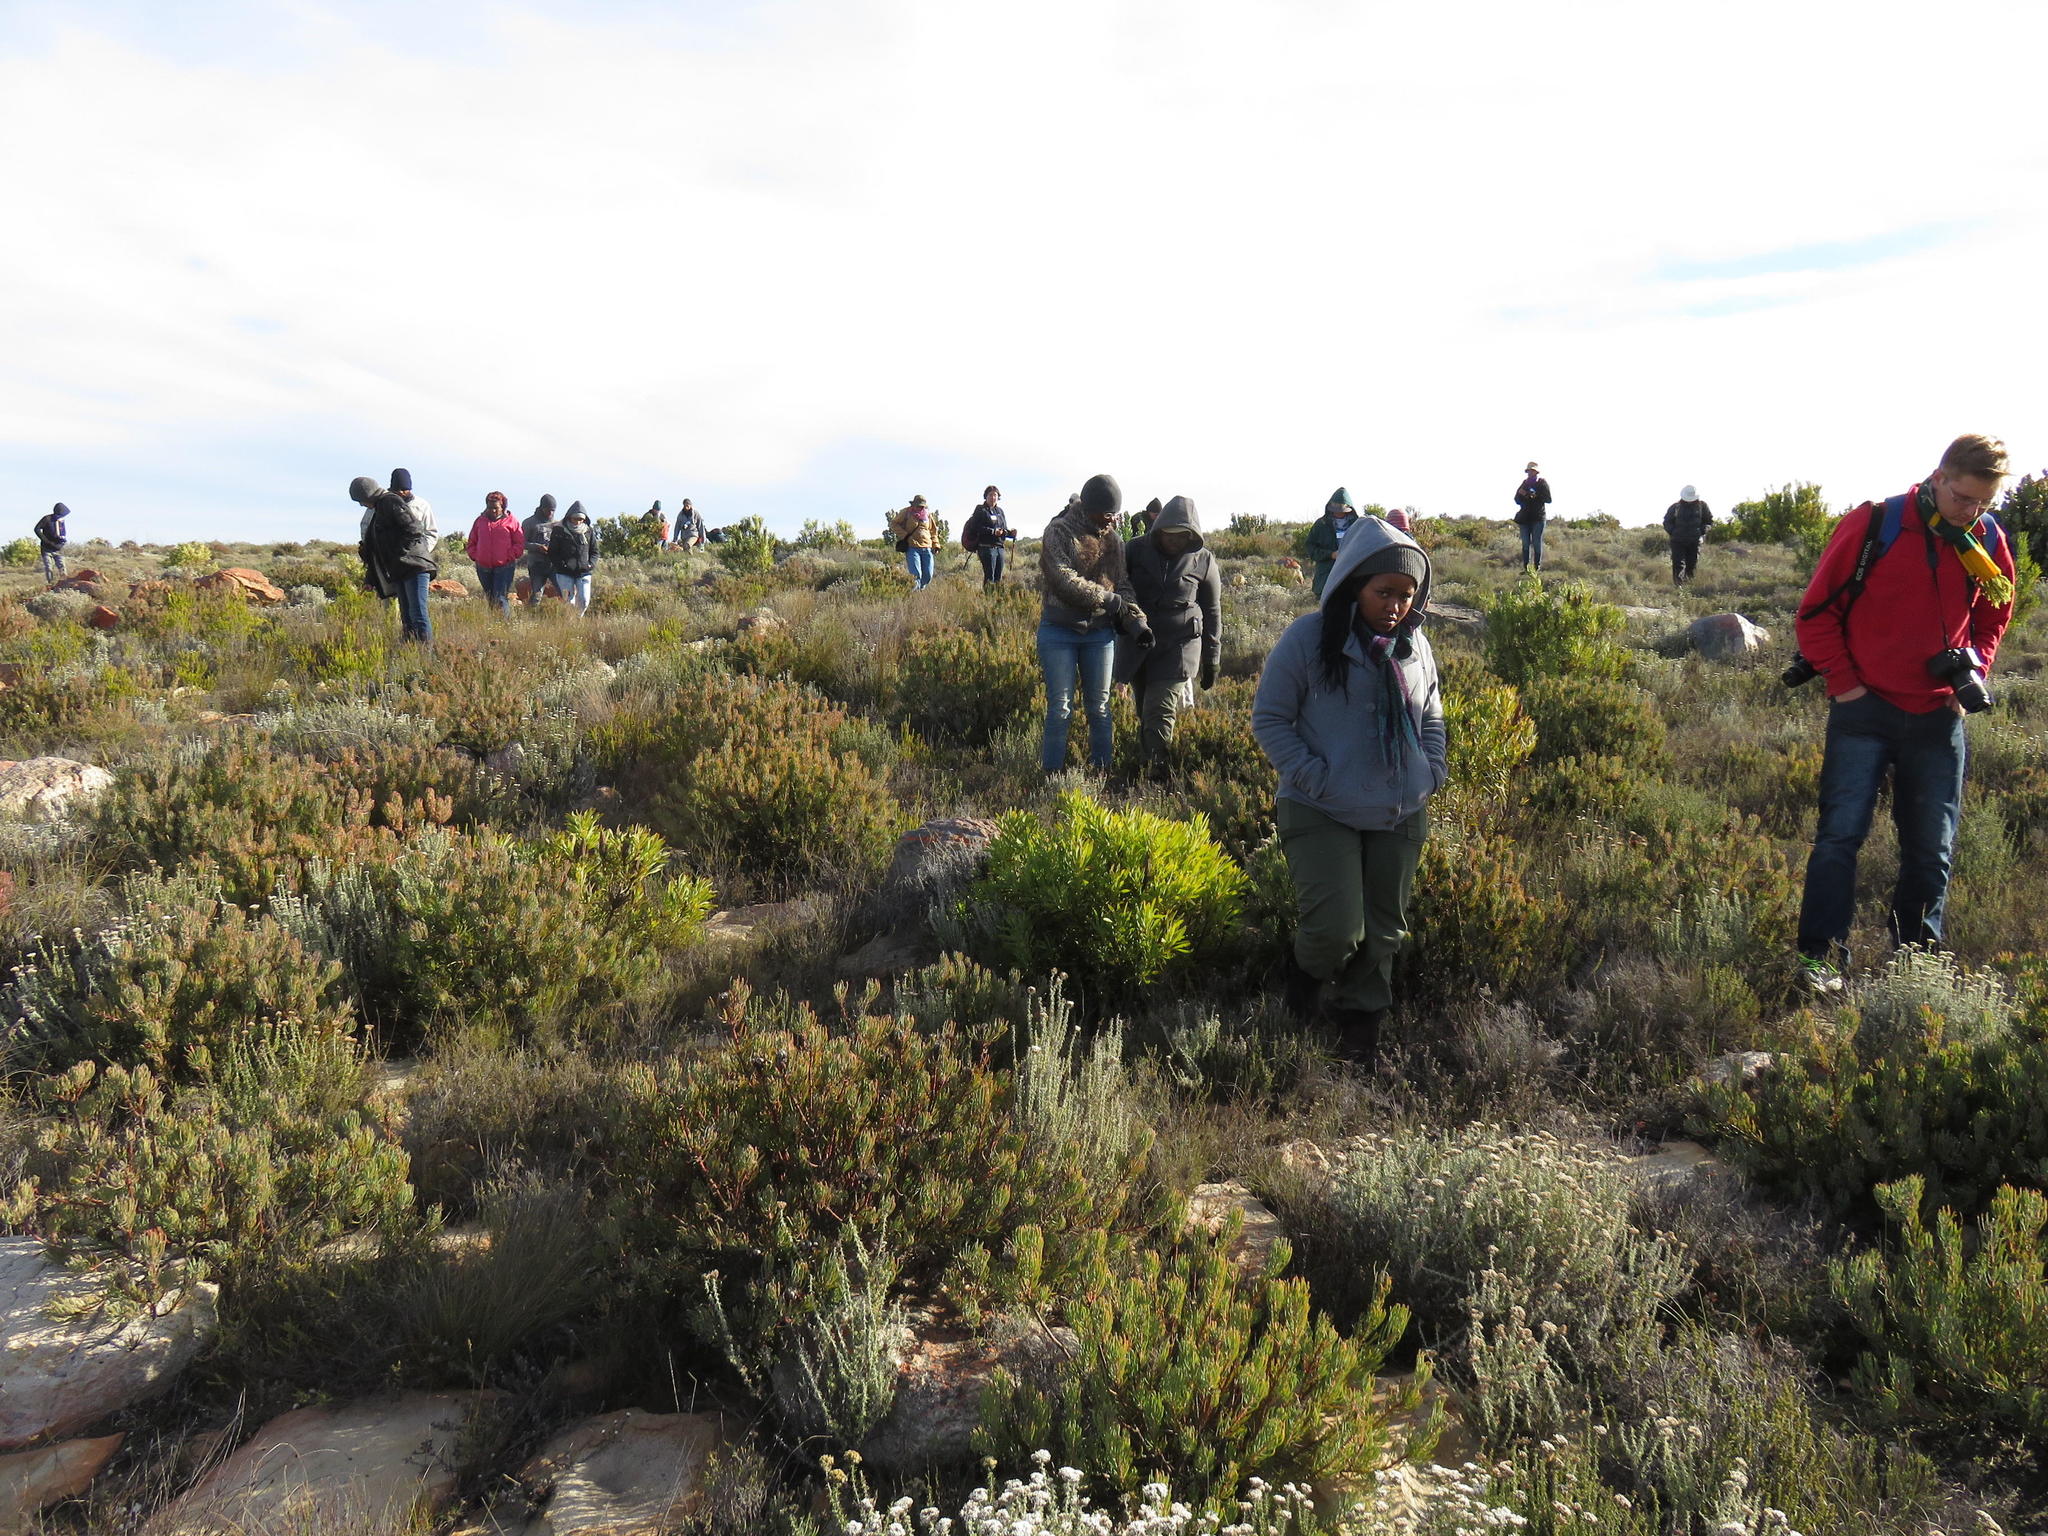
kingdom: Plantae
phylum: Tracheophyta
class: Magnoliopsida
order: Proteales
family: Proteaceae
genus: Protea
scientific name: Protea canaliculata
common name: Groove-leaf sugarbush
